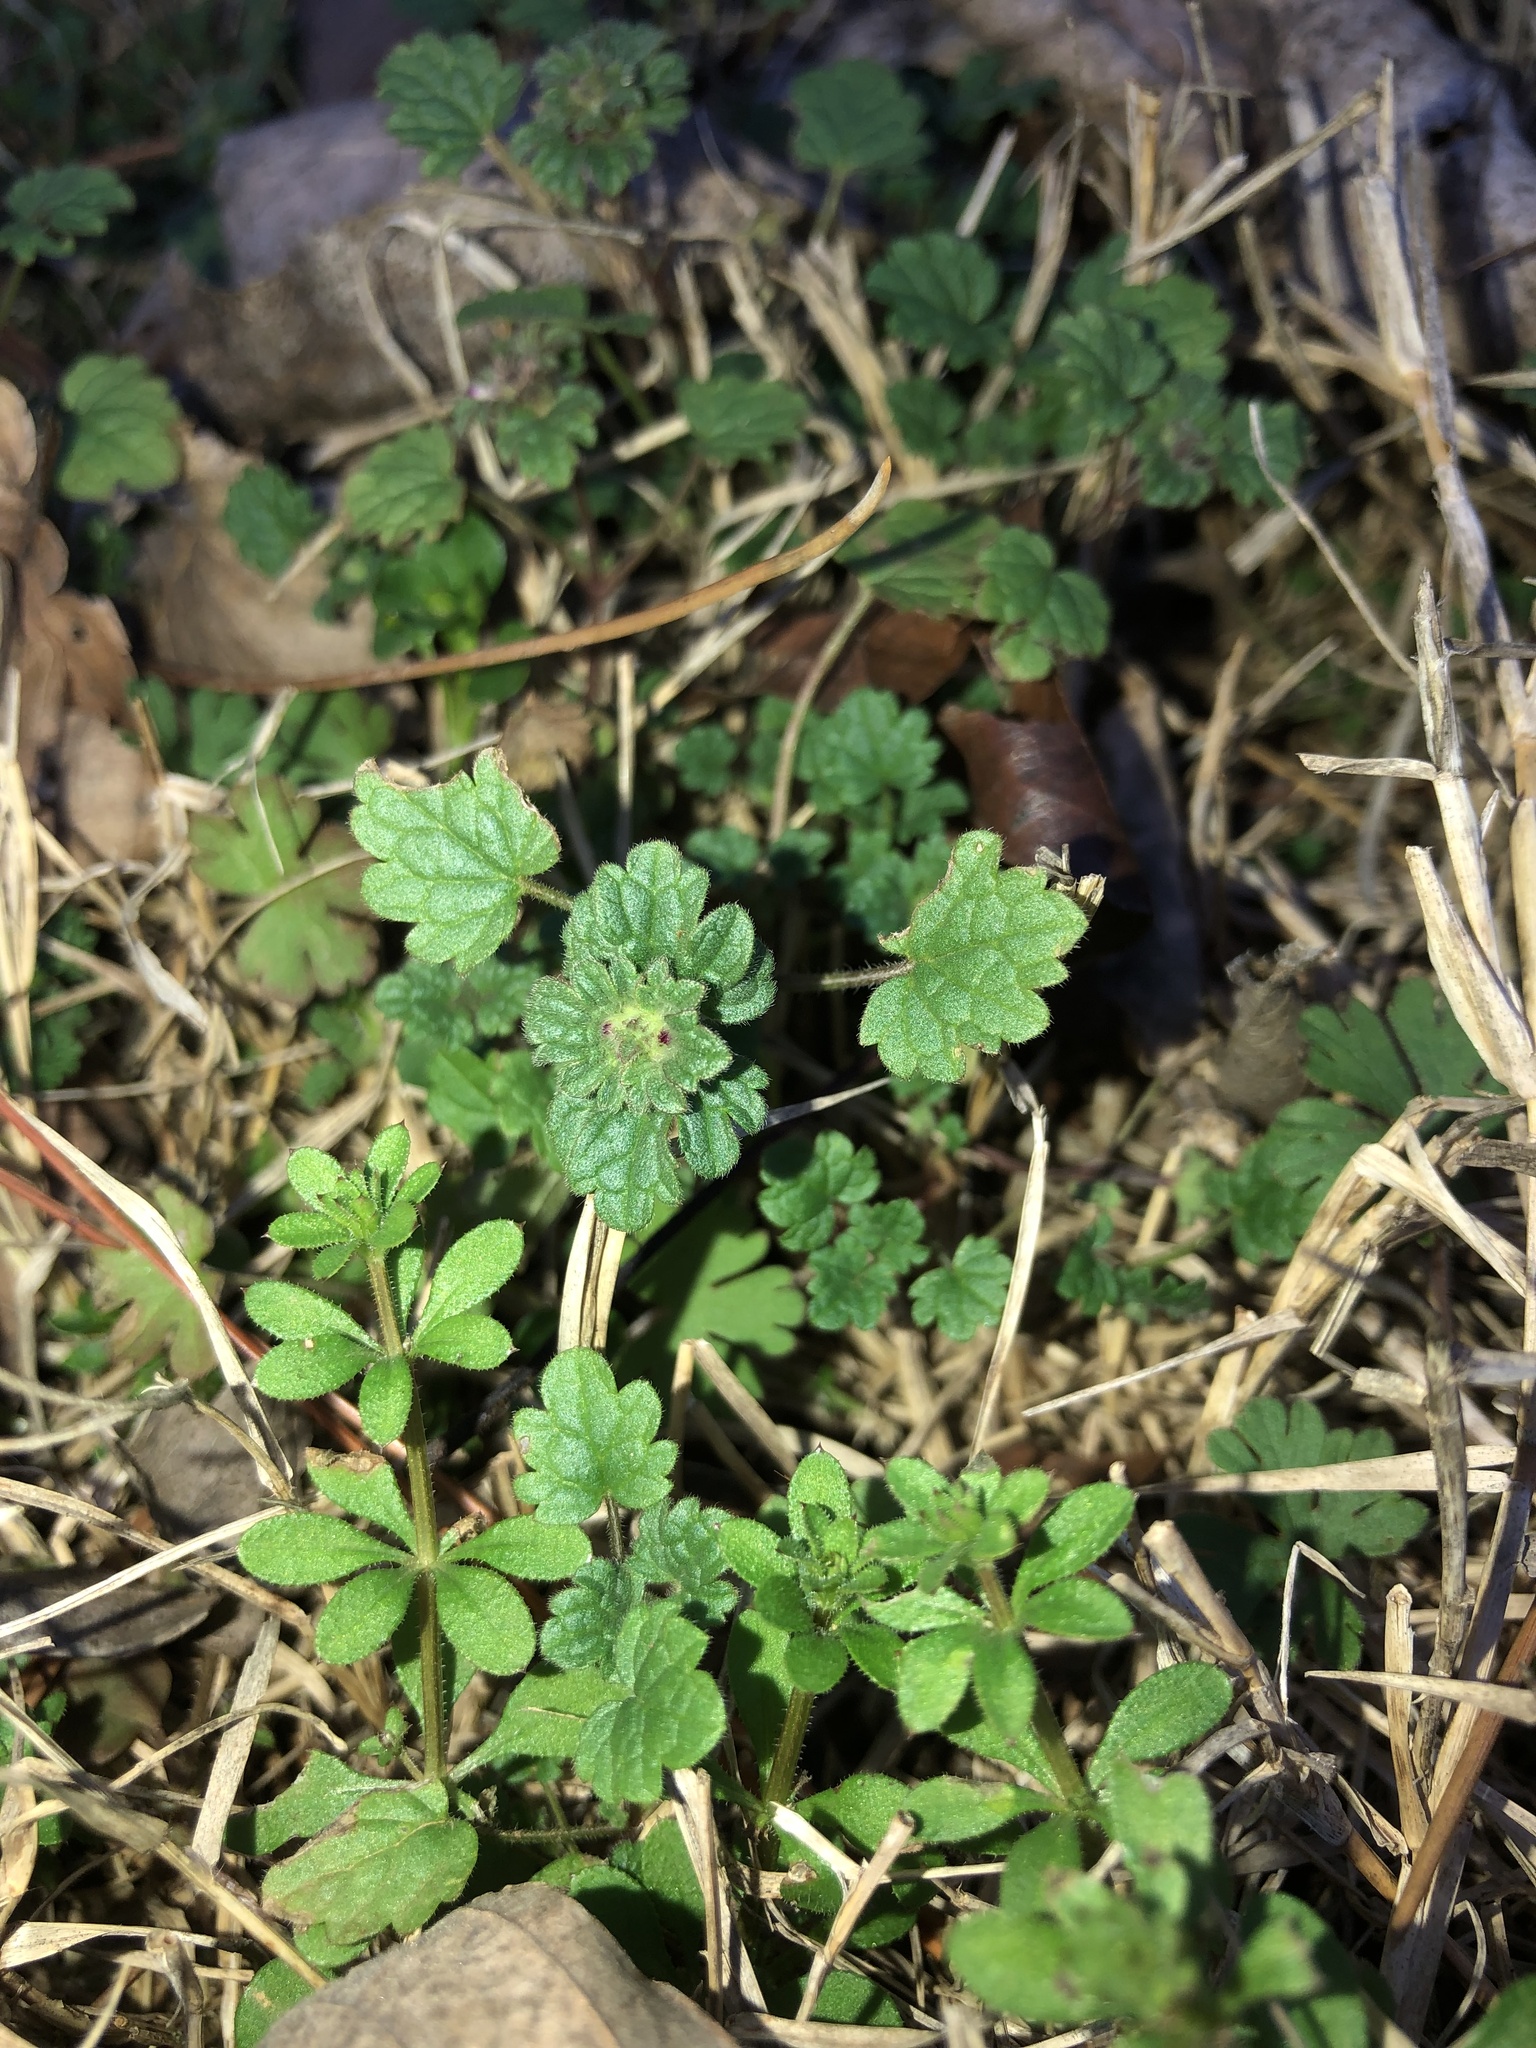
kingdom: Plantae
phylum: Tracheophyta
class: Magnoliopsida
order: Lamiales
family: Lamiaceae
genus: Lamium
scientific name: Lamium amplexicaule
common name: Henbit dead-nettle
